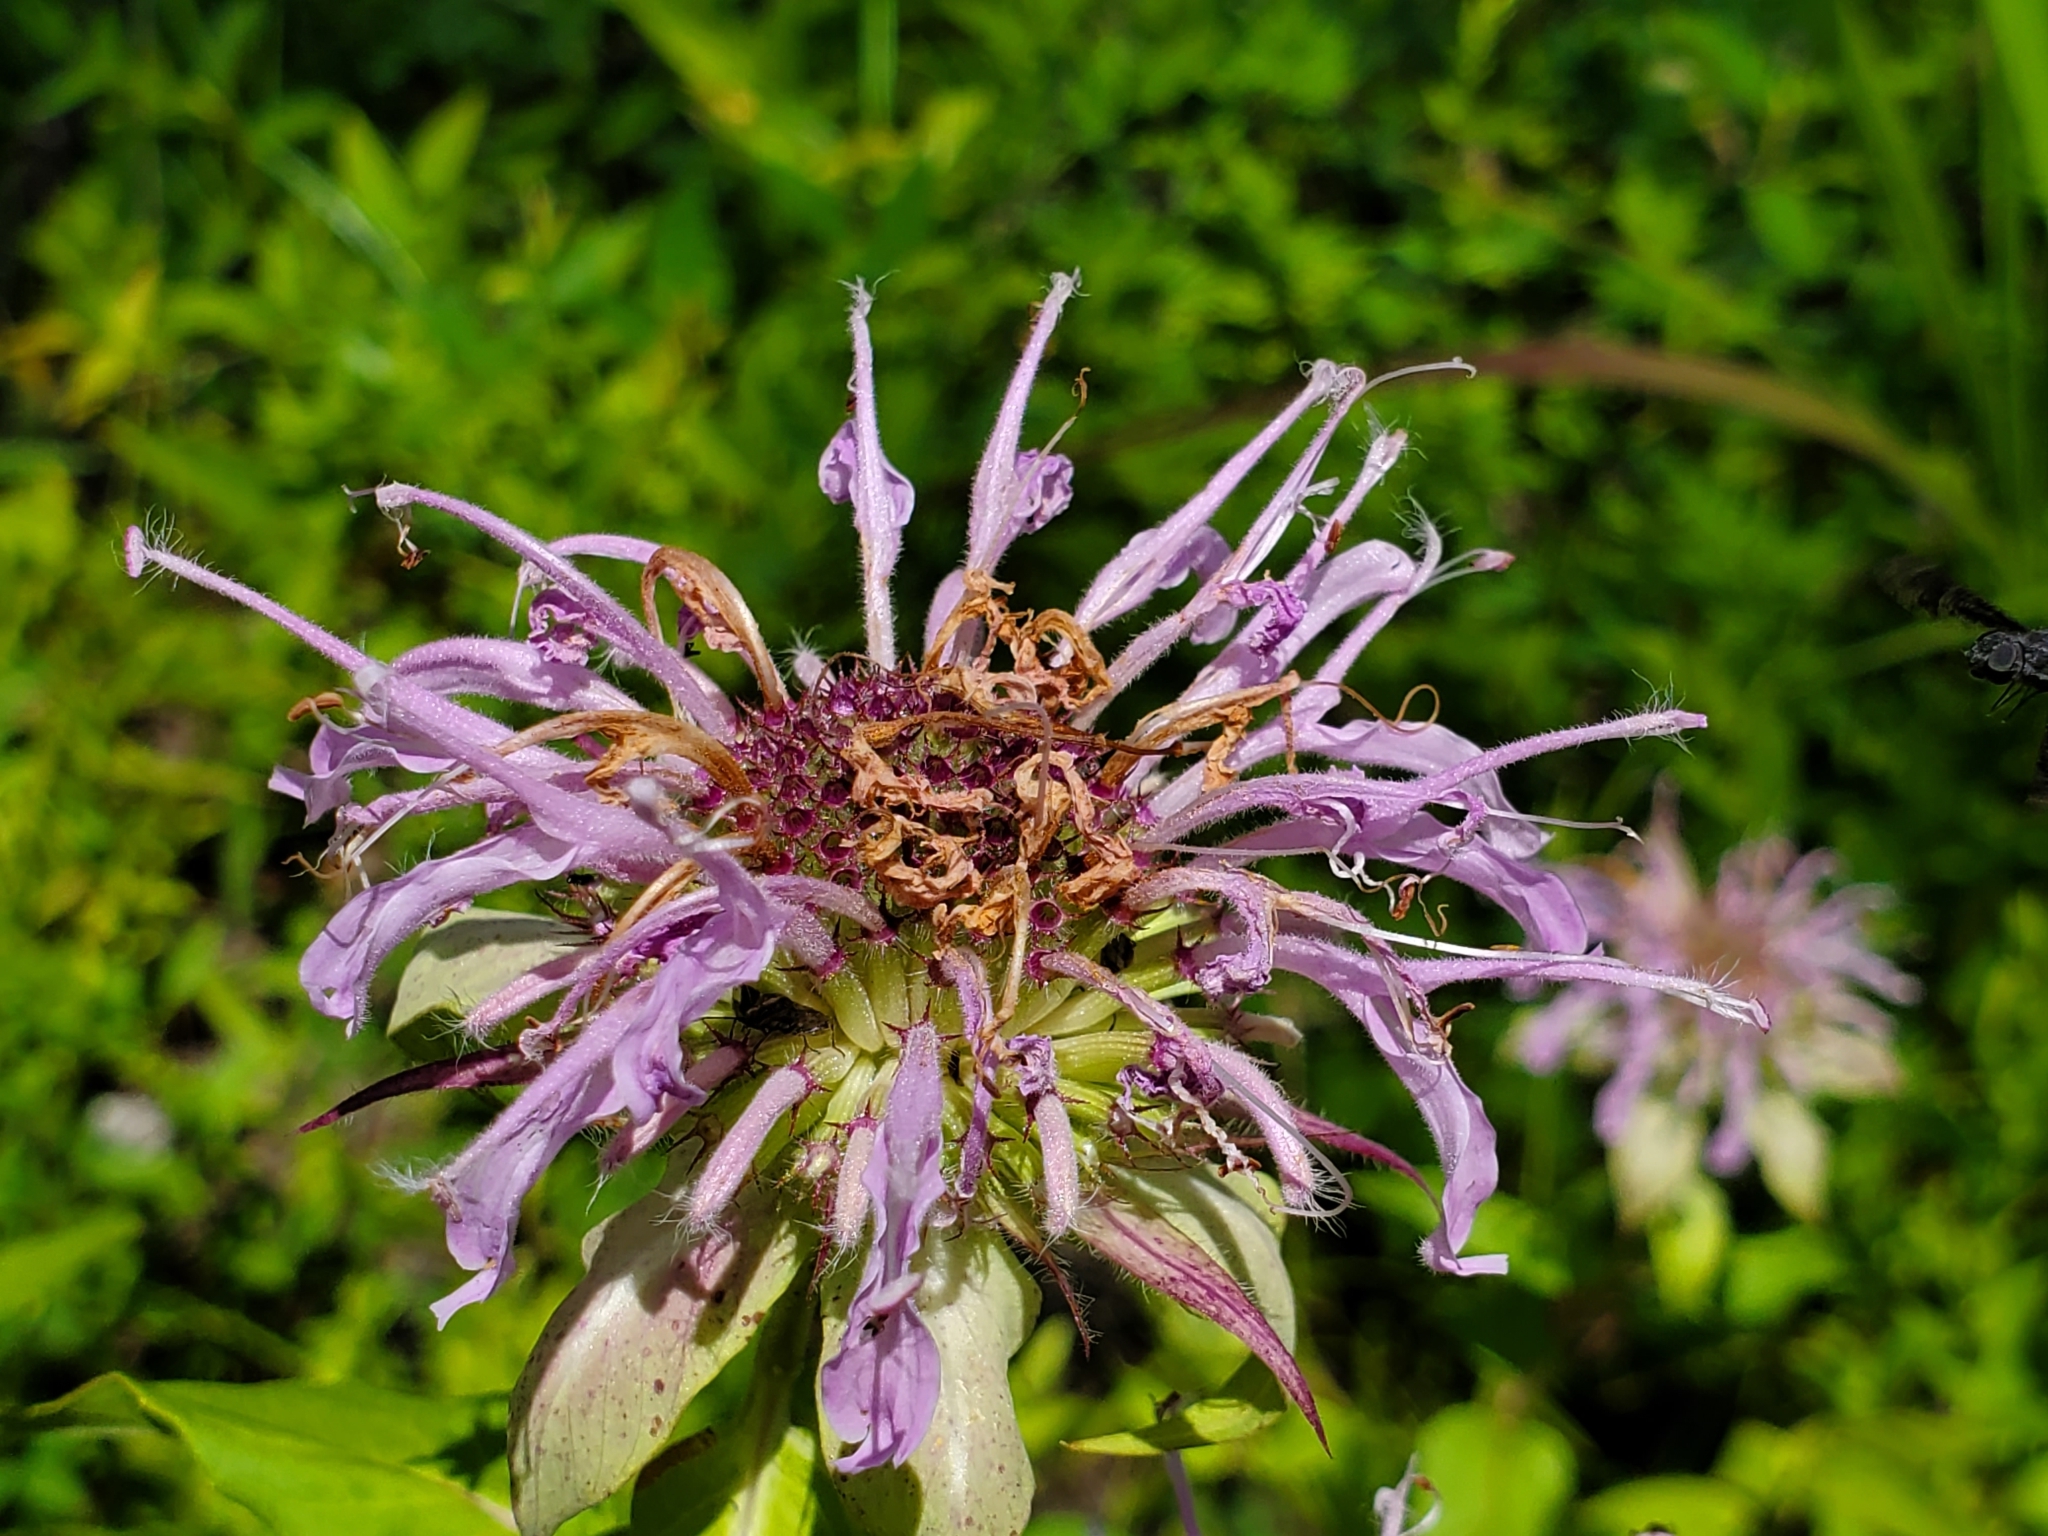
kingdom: Plantae
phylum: Tracheophyta
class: Magnoliopsida
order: Lamiales
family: Lamiaceae
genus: Monarda
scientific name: Monarda fistulosa
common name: Purple beebalm
